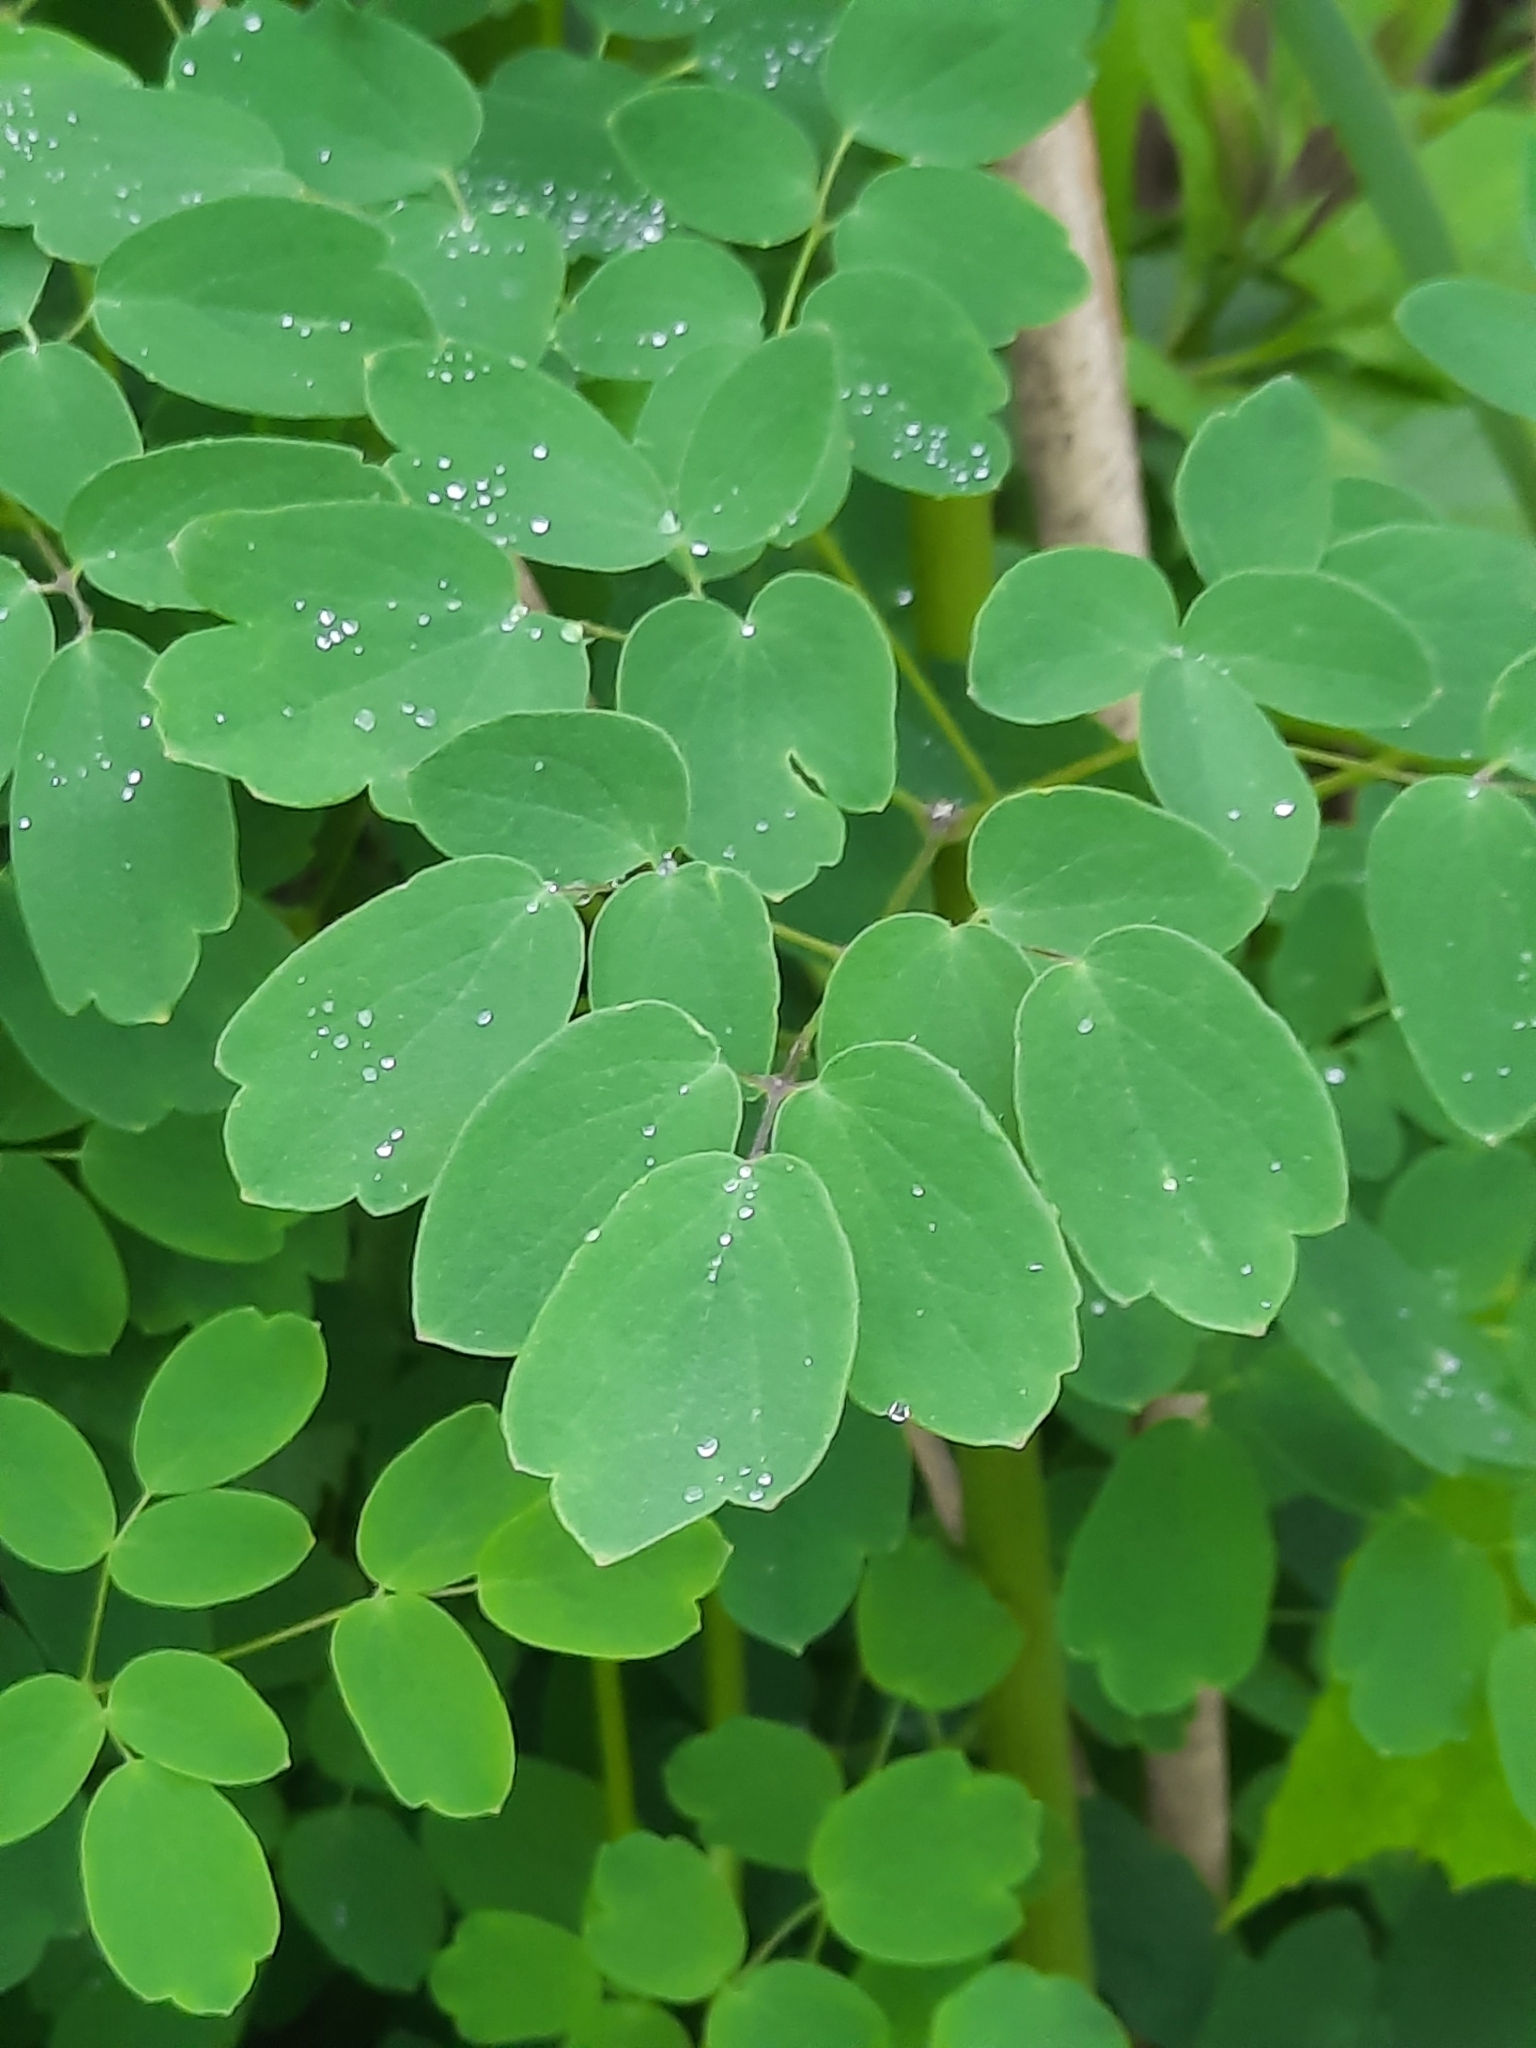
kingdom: Plantae
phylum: Tracheophyta
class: Magnoliopsida
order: Ranunculales
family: Ranunculaceae
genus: Thalictrum
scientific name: Thalictrum pubescens
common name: King-of-the-meadow
